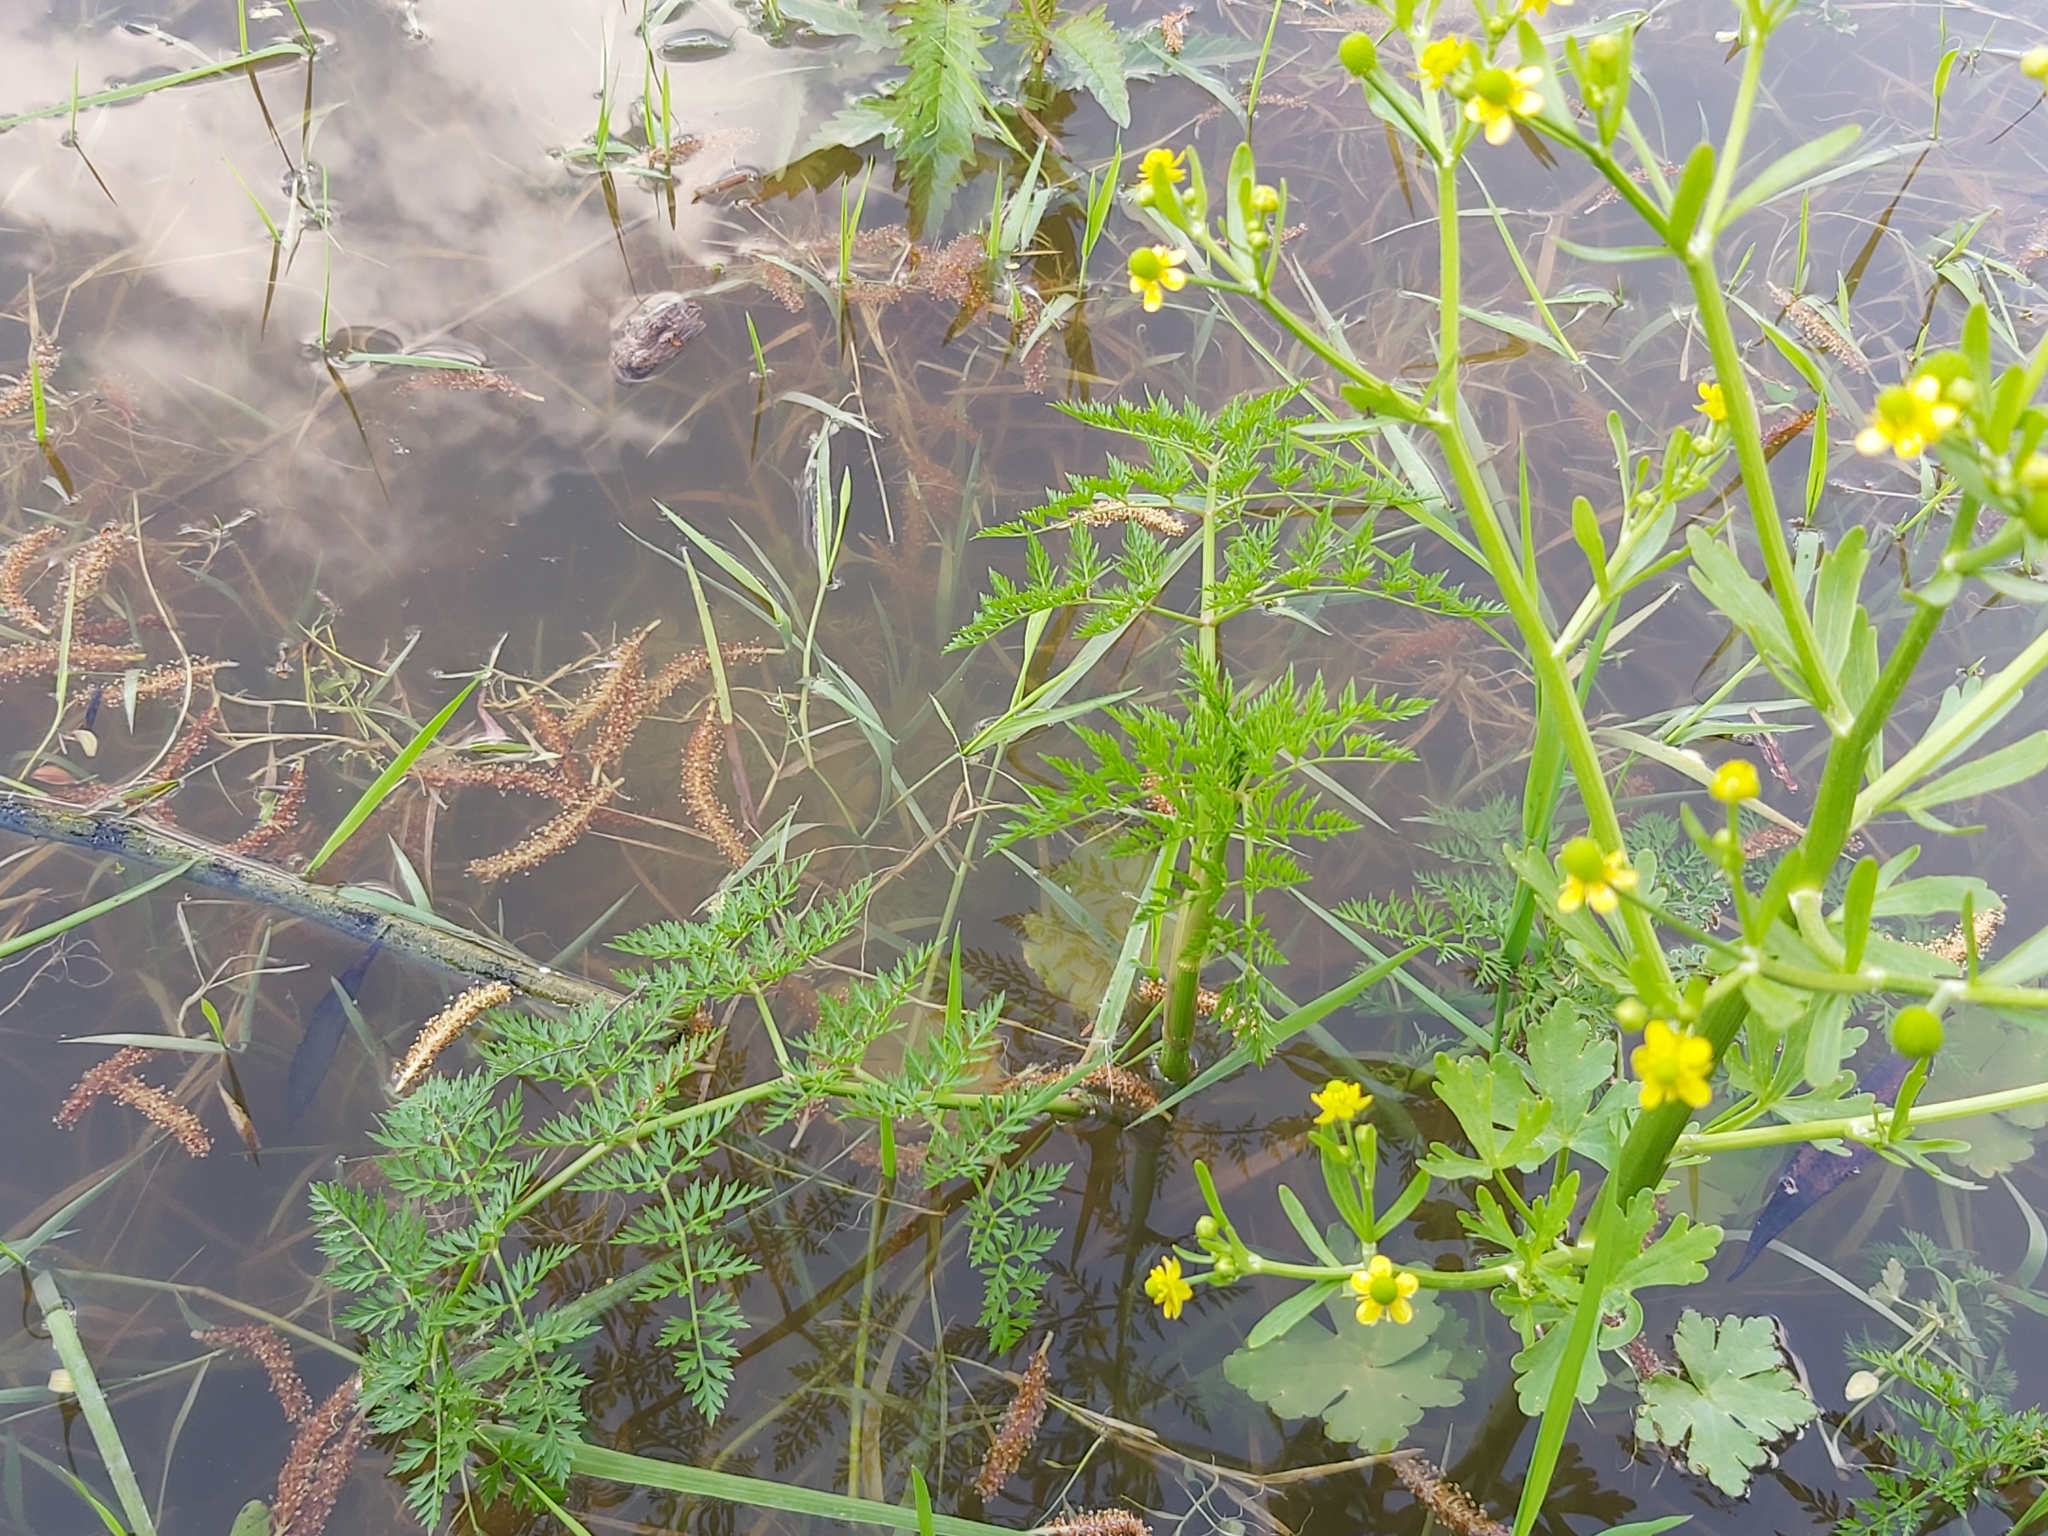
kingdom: Plantae
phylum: Tracheophyta
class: Magnoliopsida
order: Apiales
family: Apiaceae
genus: Oenanthe
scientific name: Oenanthe aquatica
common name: Fine-leaved water-dropwort
